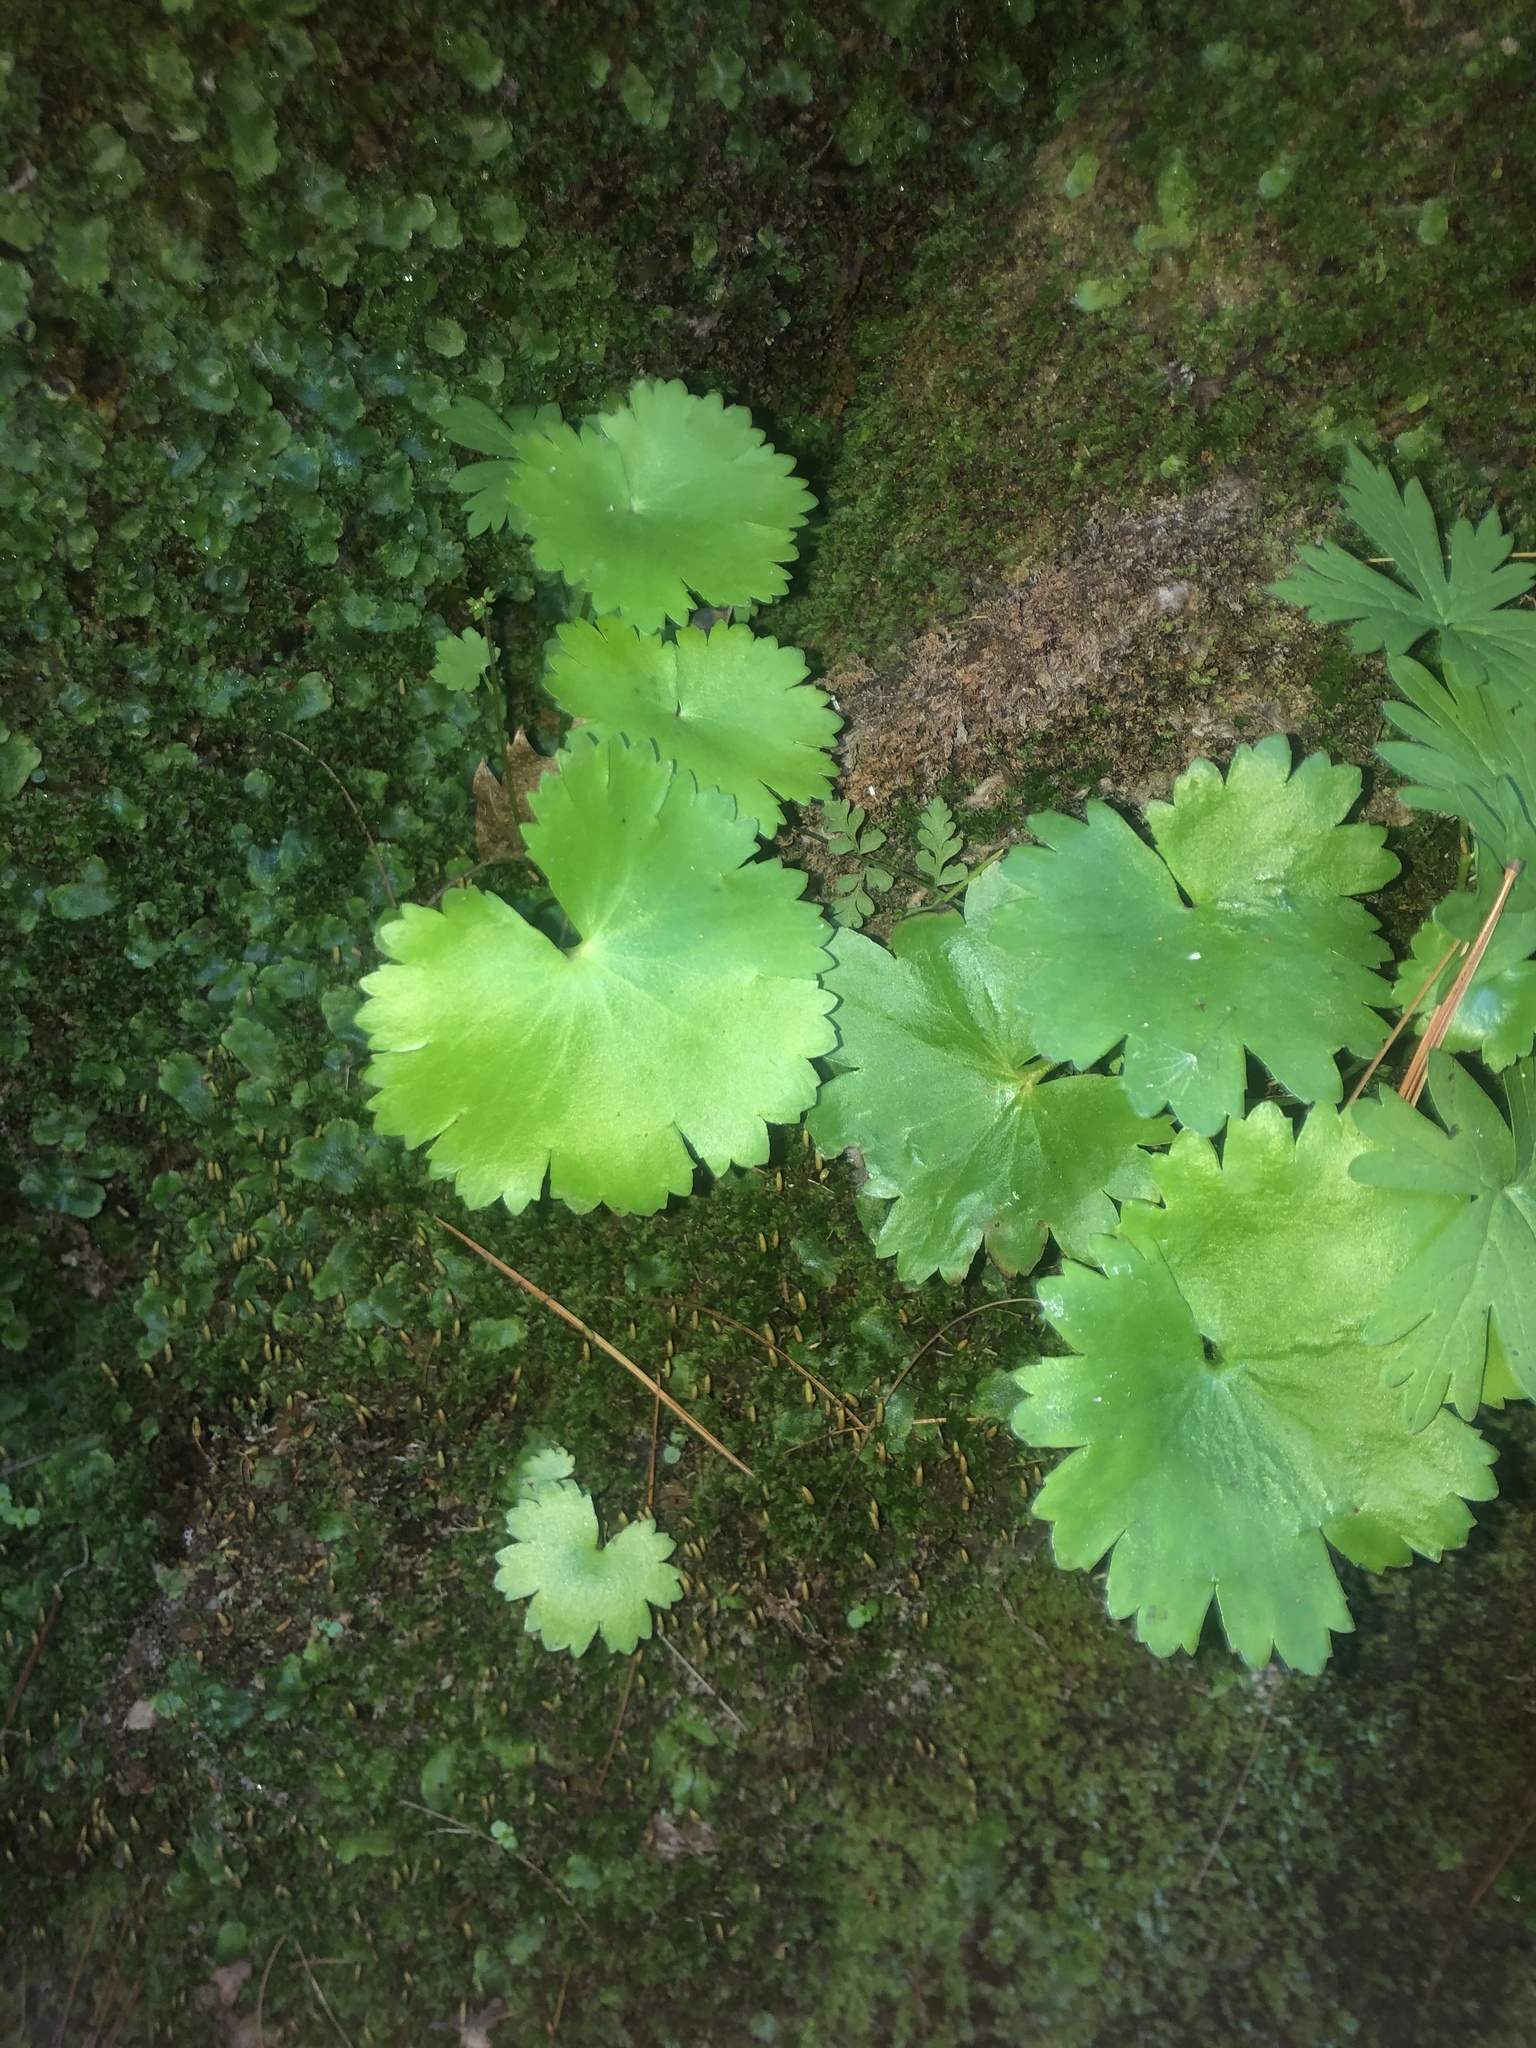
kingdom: Plantae
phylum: Tracheophyta
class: Magnoliopsida
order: Saxifragales
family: Saxifragaceae
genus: Sullivantia
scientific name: Sullivantia sullivantii
